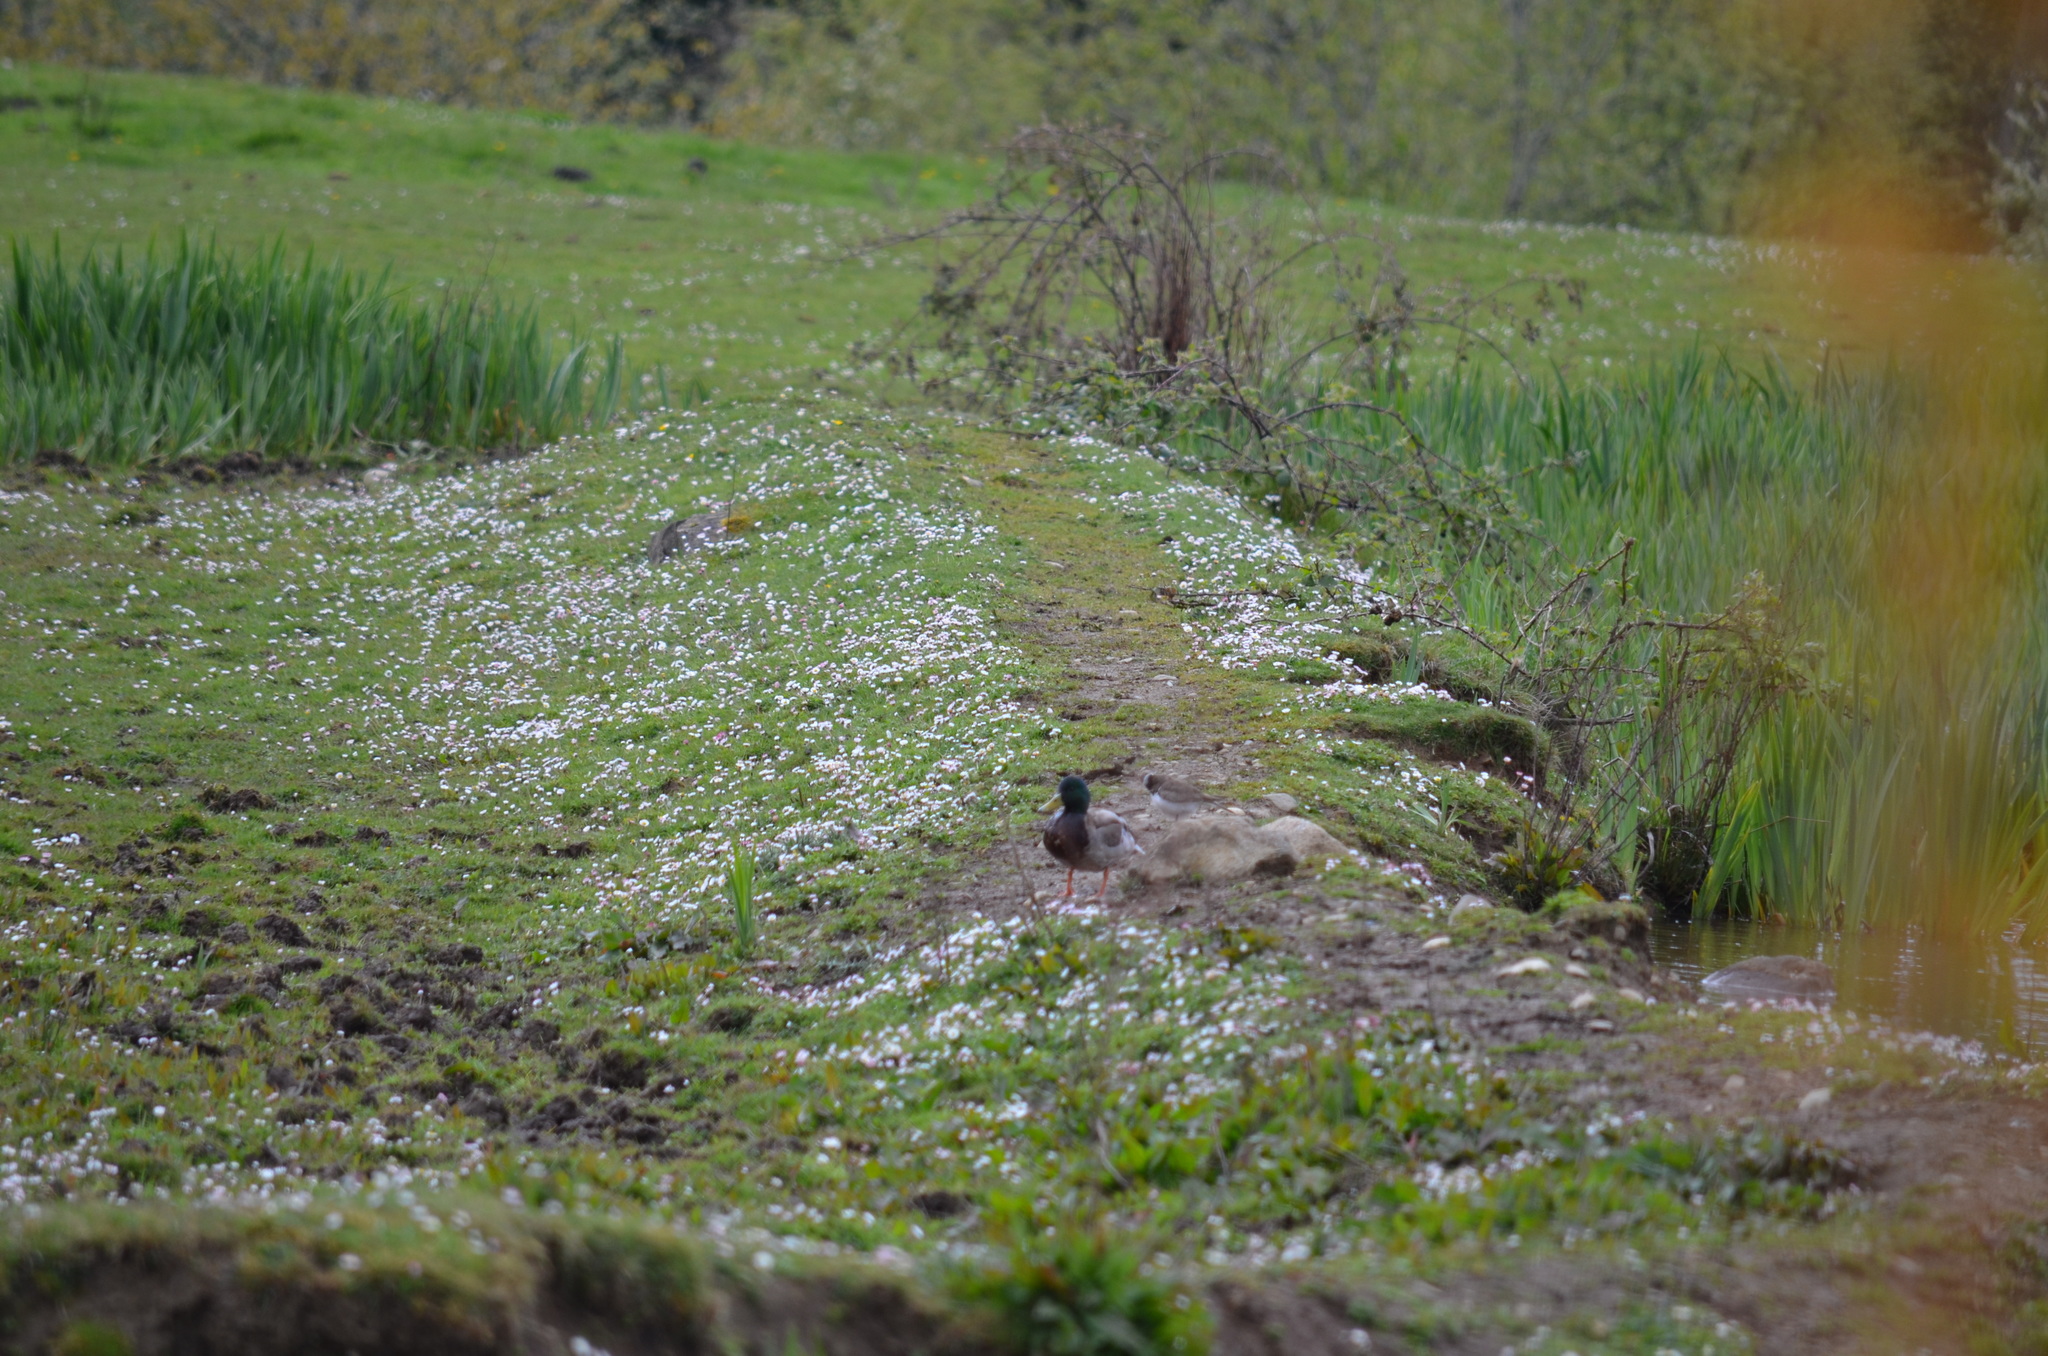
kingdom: Animalia
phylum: Chordata
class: Aves
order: Anseriformes
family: Anatidae
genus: Anas
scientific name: Anas platyrhynchos
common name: Mallard
